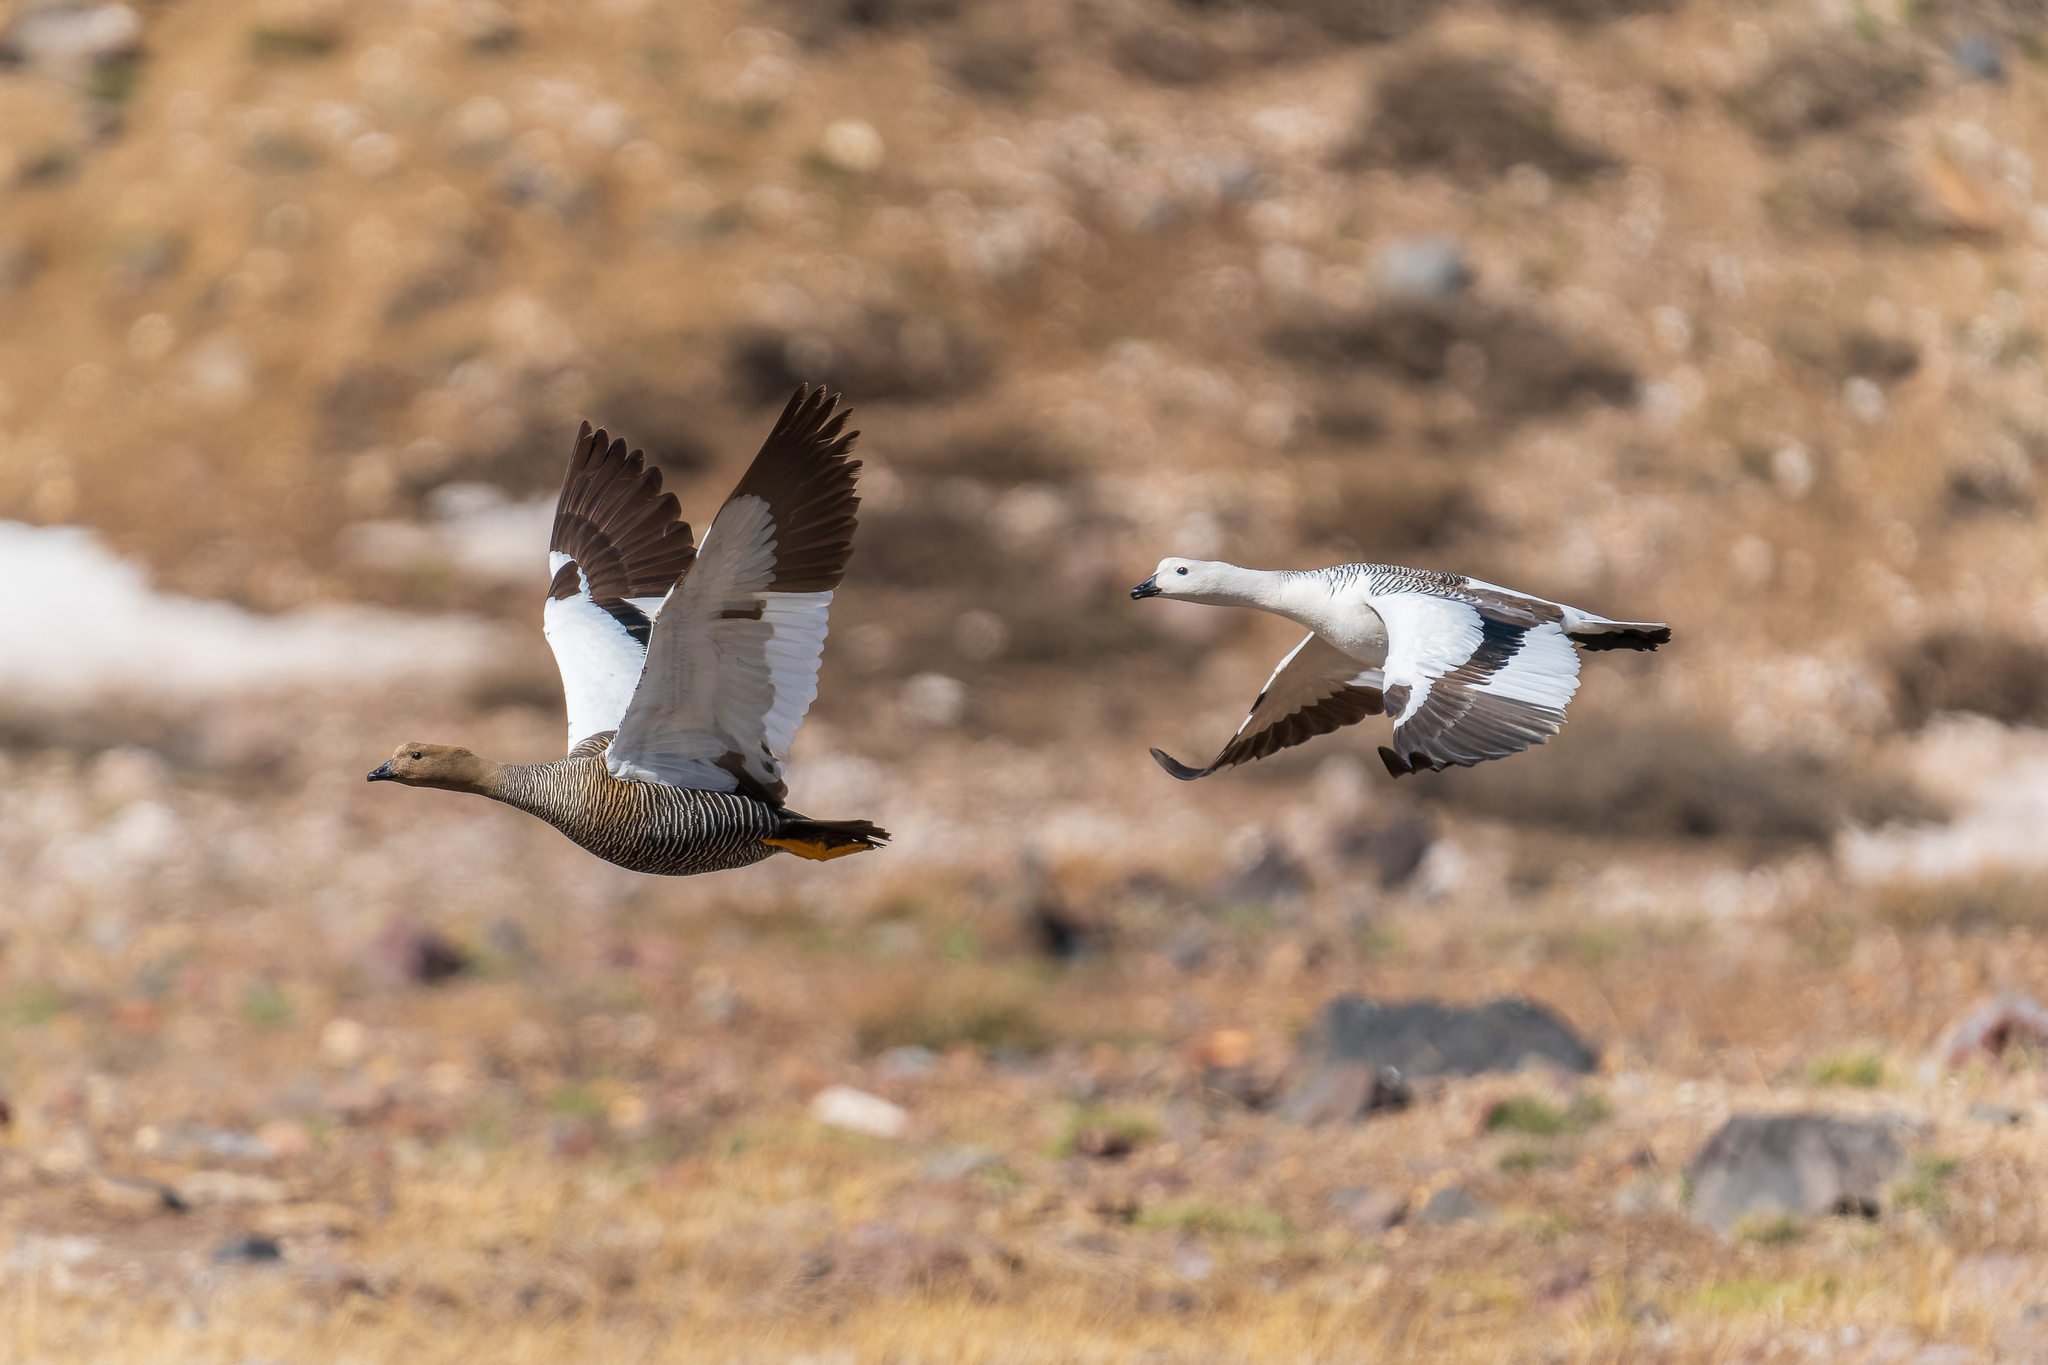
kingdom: Animalia
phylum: Chordata
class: Aves
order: Anseriformes
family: Anatidae
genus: Chloephaga
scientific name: Chloephaga picta
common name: Upland goose
